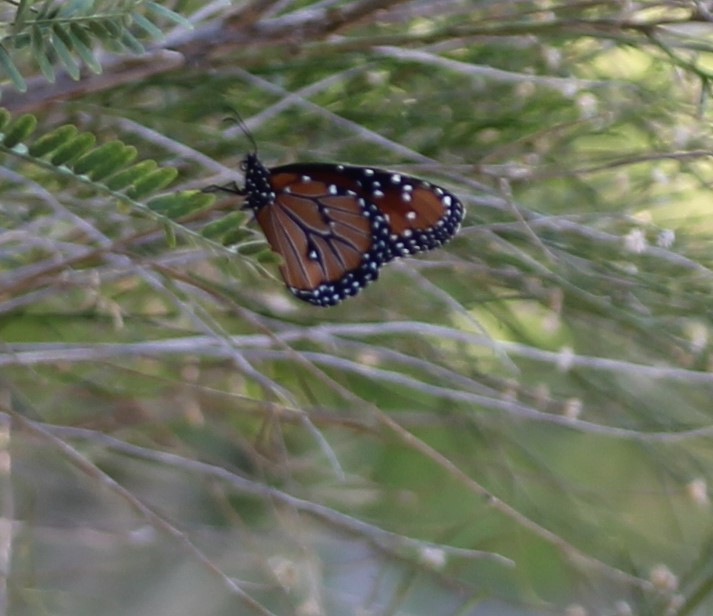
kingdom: Animalia
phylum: Arthropoda
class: Insecta
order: Lepidoptera
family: Nymphalidae
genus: Danaus
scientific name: Danaus gilippus
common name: Queen
